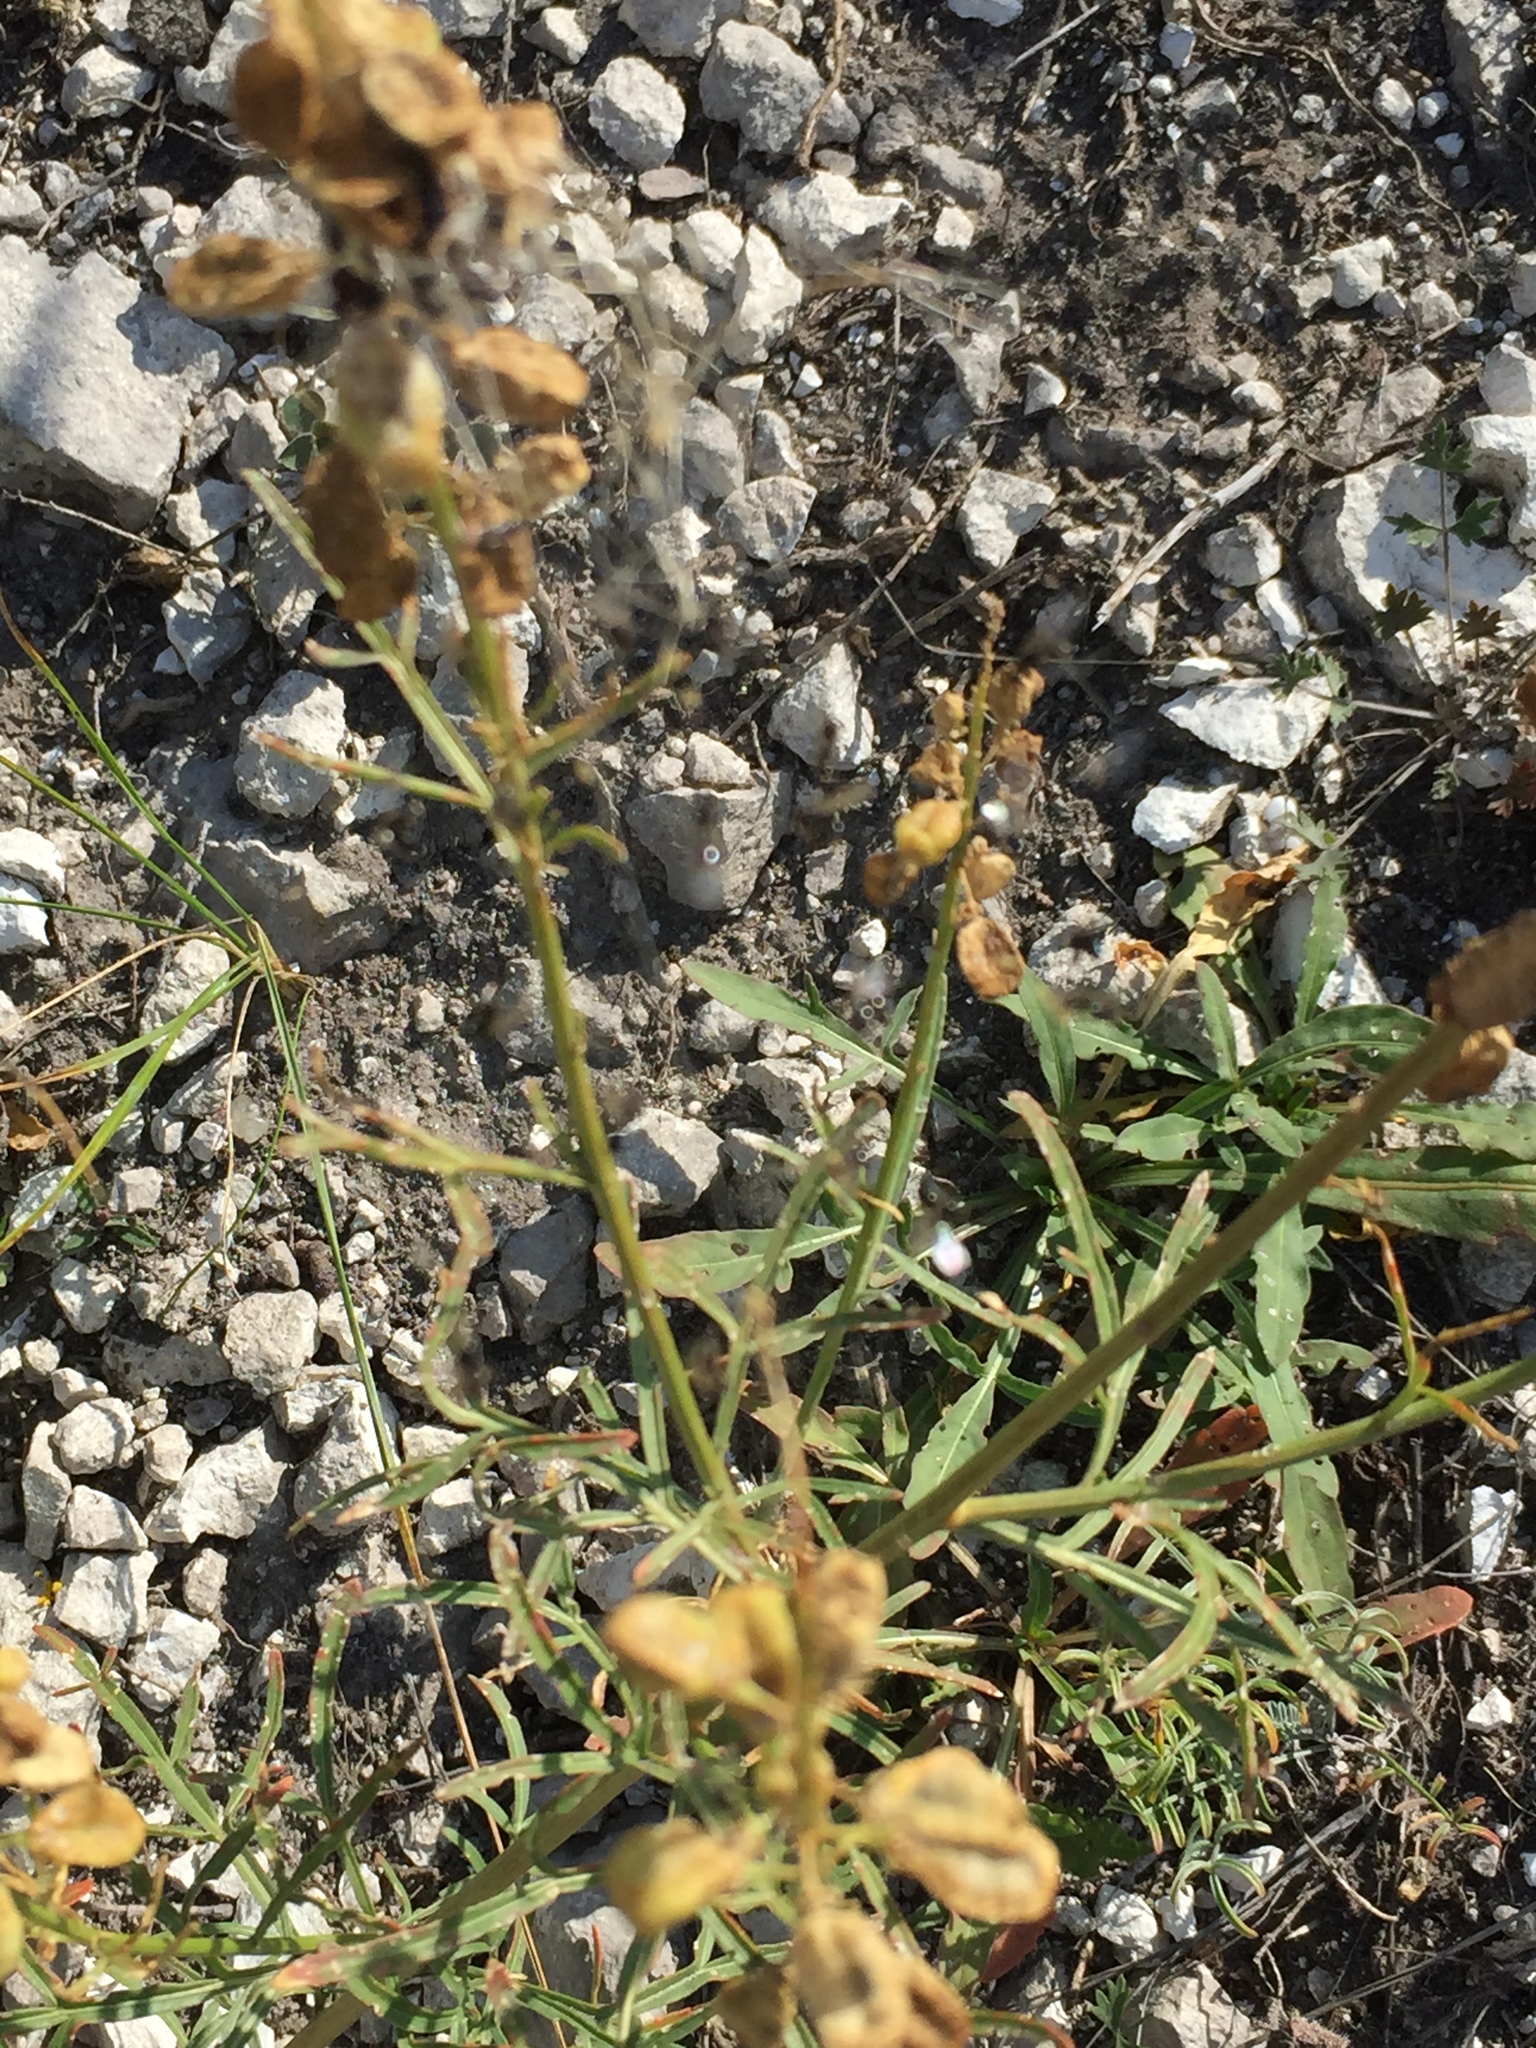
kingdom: Plantae
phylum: Tracheophyta
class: Magnoliopsida
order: Brassicales
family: Resedaceae
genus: Reseda
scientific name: Reseda lutea
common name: Wild mignonette
